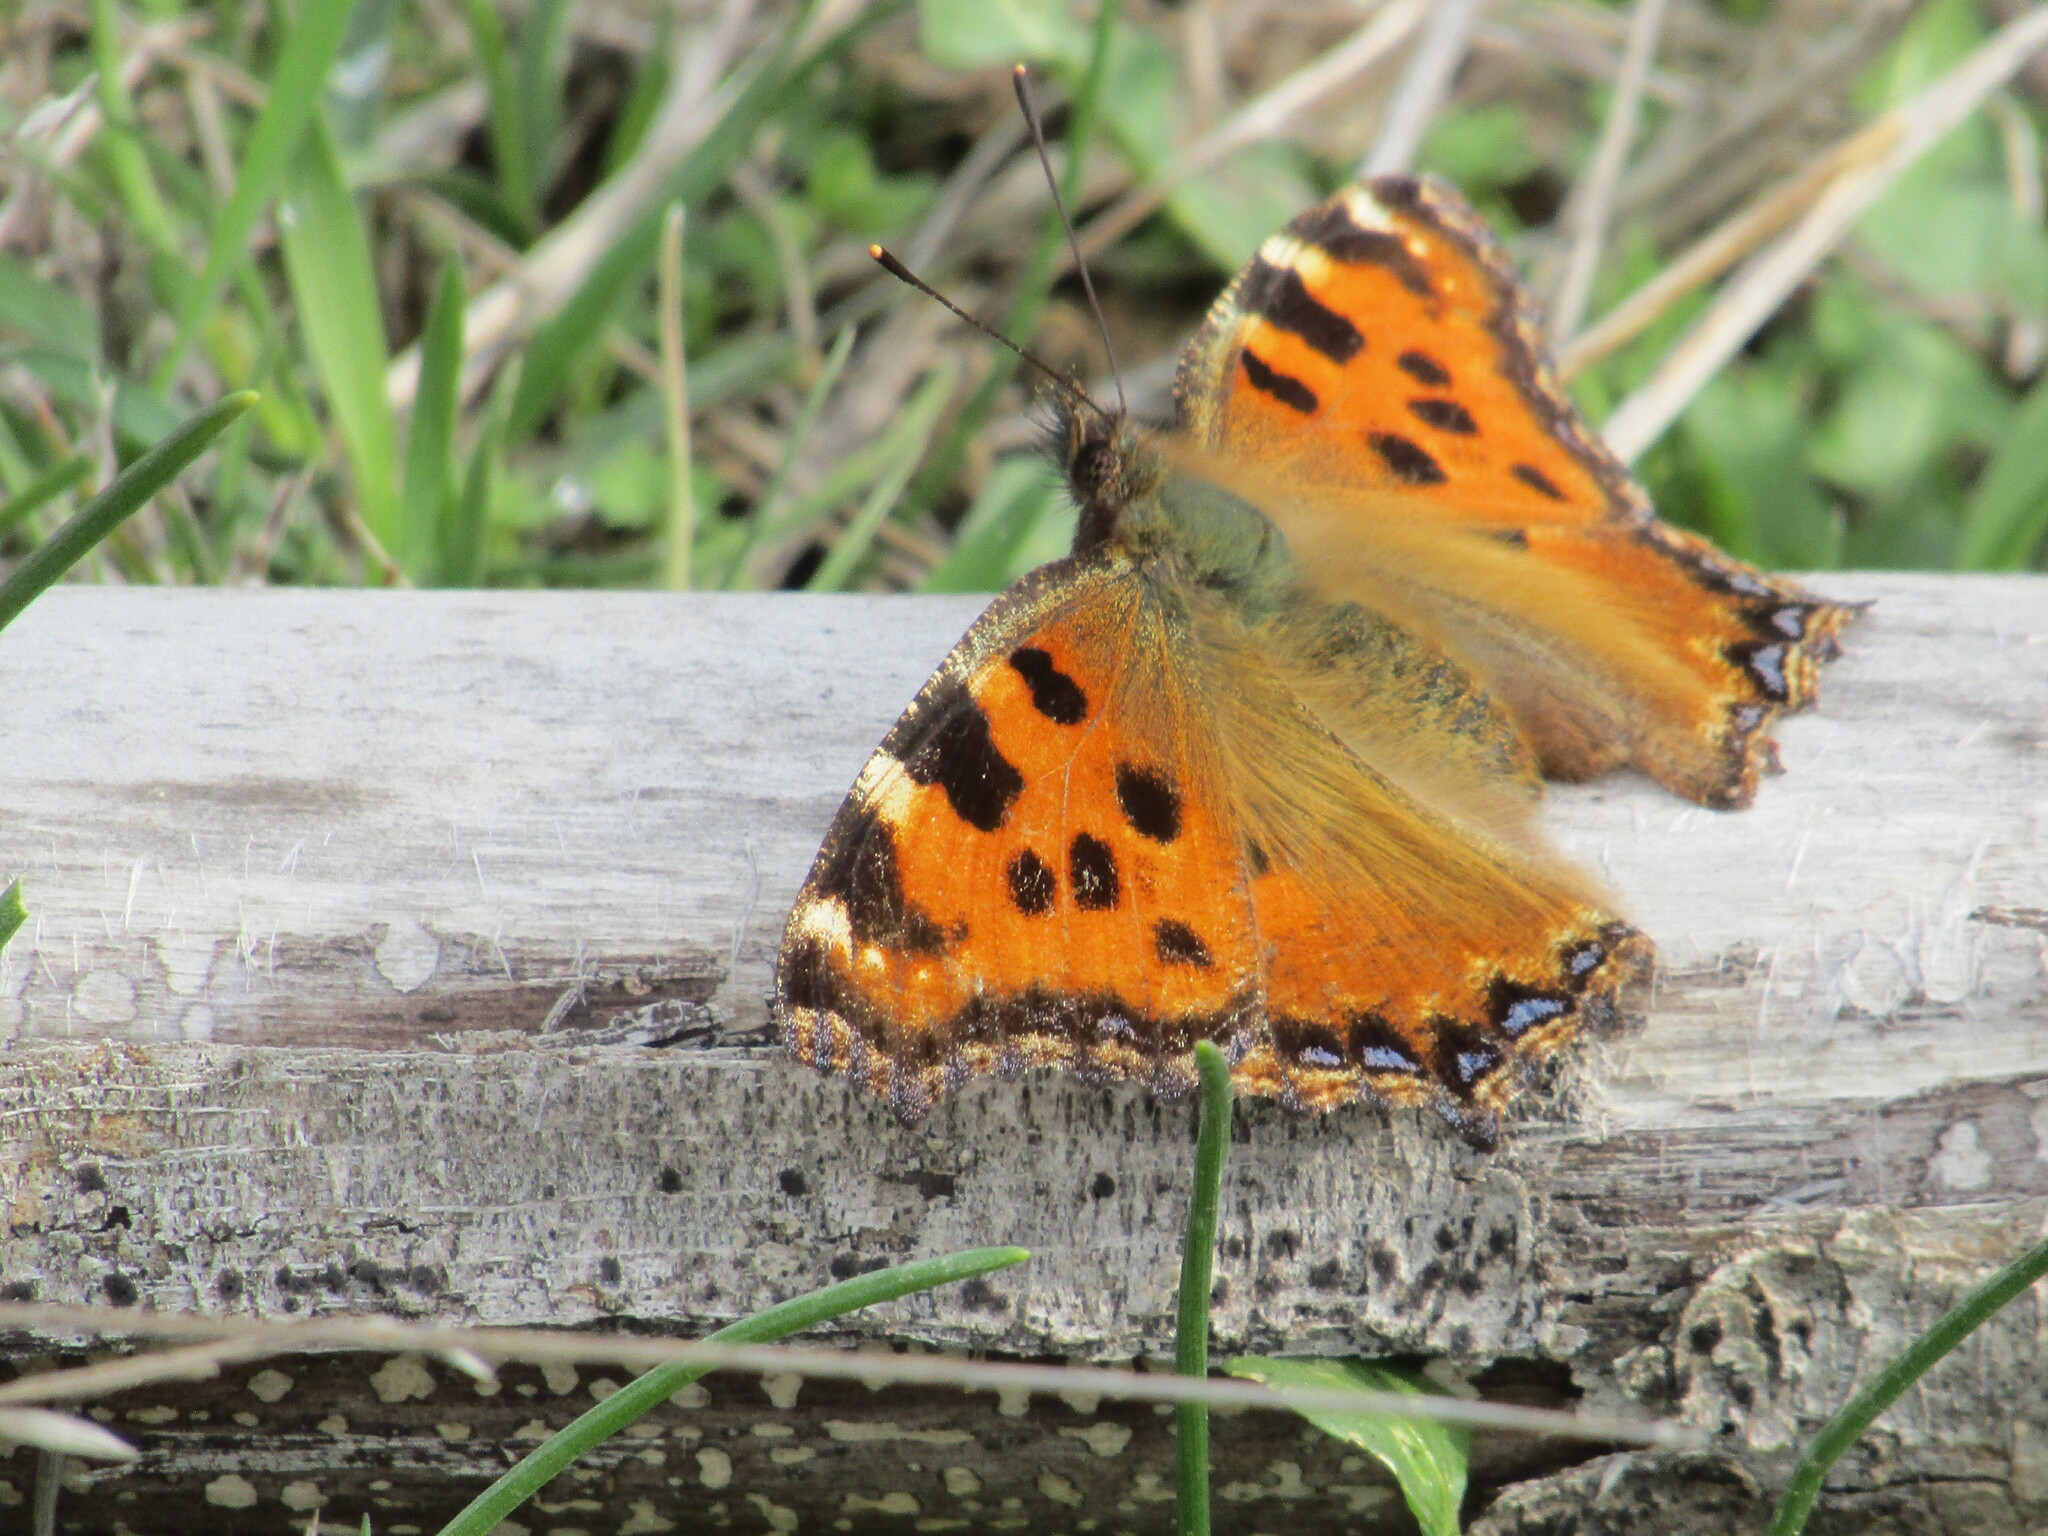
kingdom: Animalia
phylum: Arthropoda
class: Insecta
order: Lepidoptera
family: Nymphalidae
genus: Nymphalis
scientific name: Nymphalis polychloros
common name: Large tortoiseshell
